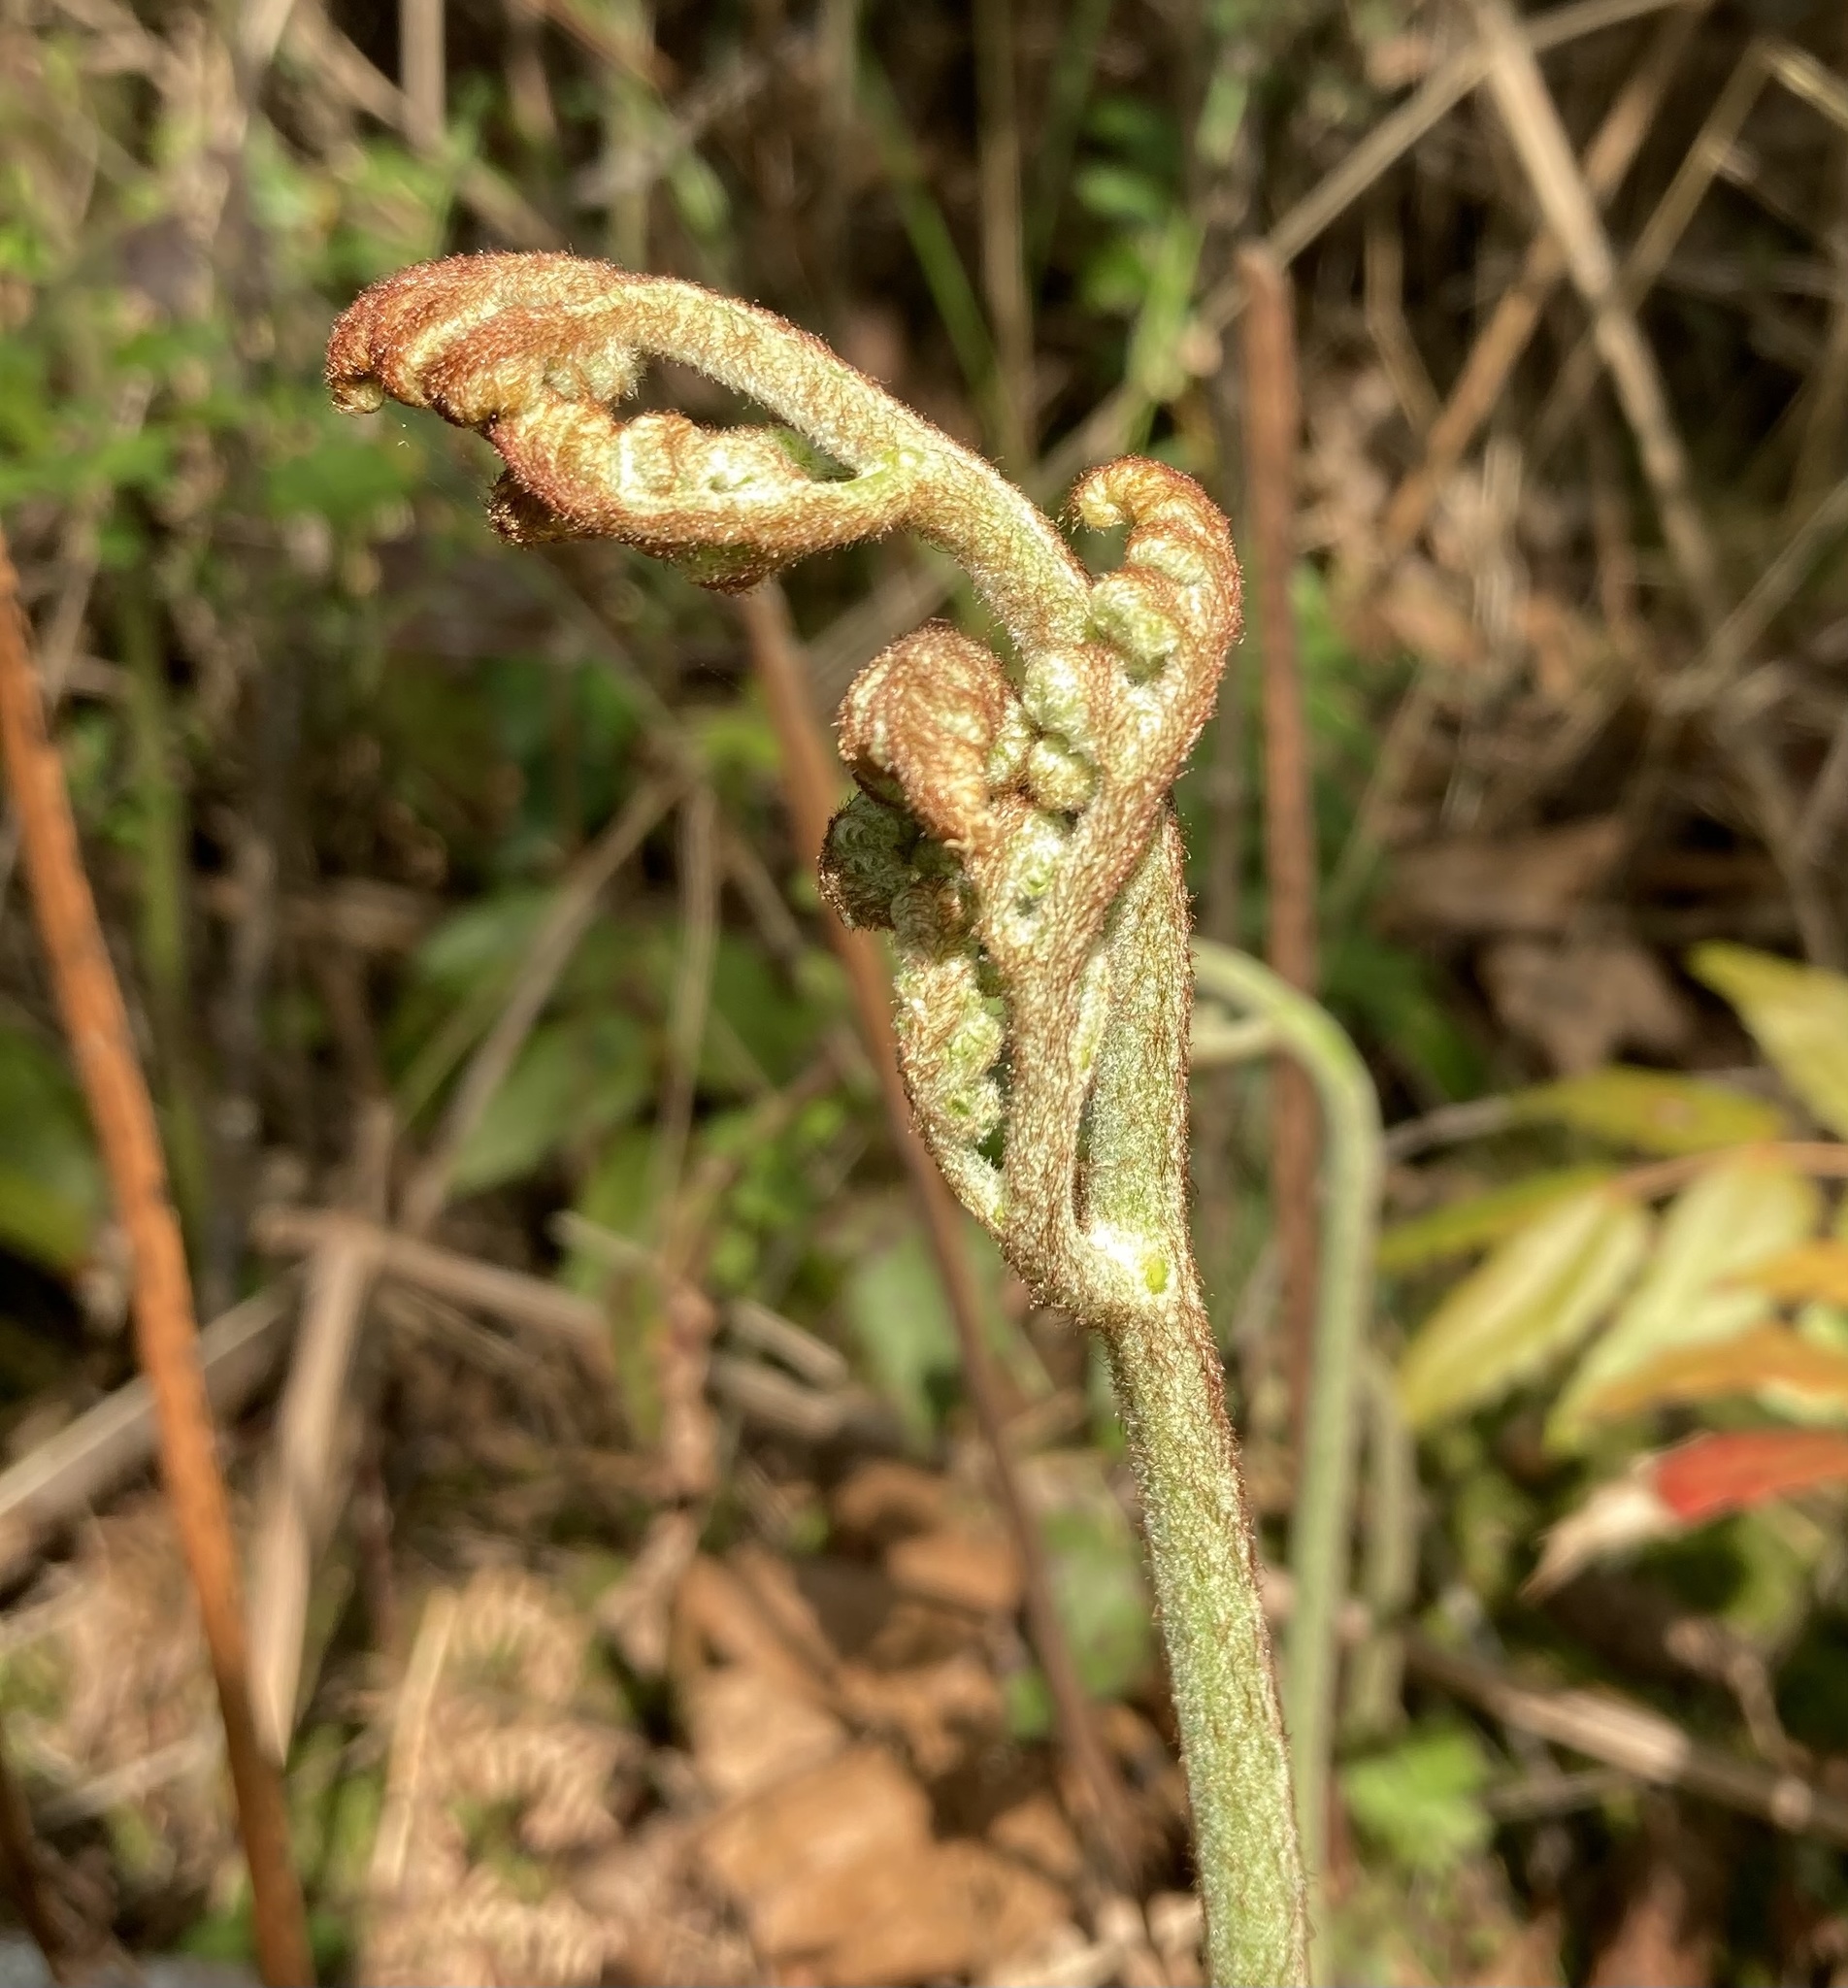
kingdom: Plantae
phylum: Tracheophyta
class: Polypodiopsida
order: Polypodiales
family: Dennstaedtiaceae
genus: Pteridium
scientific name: Pteridium aquilinum
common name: Bracken
